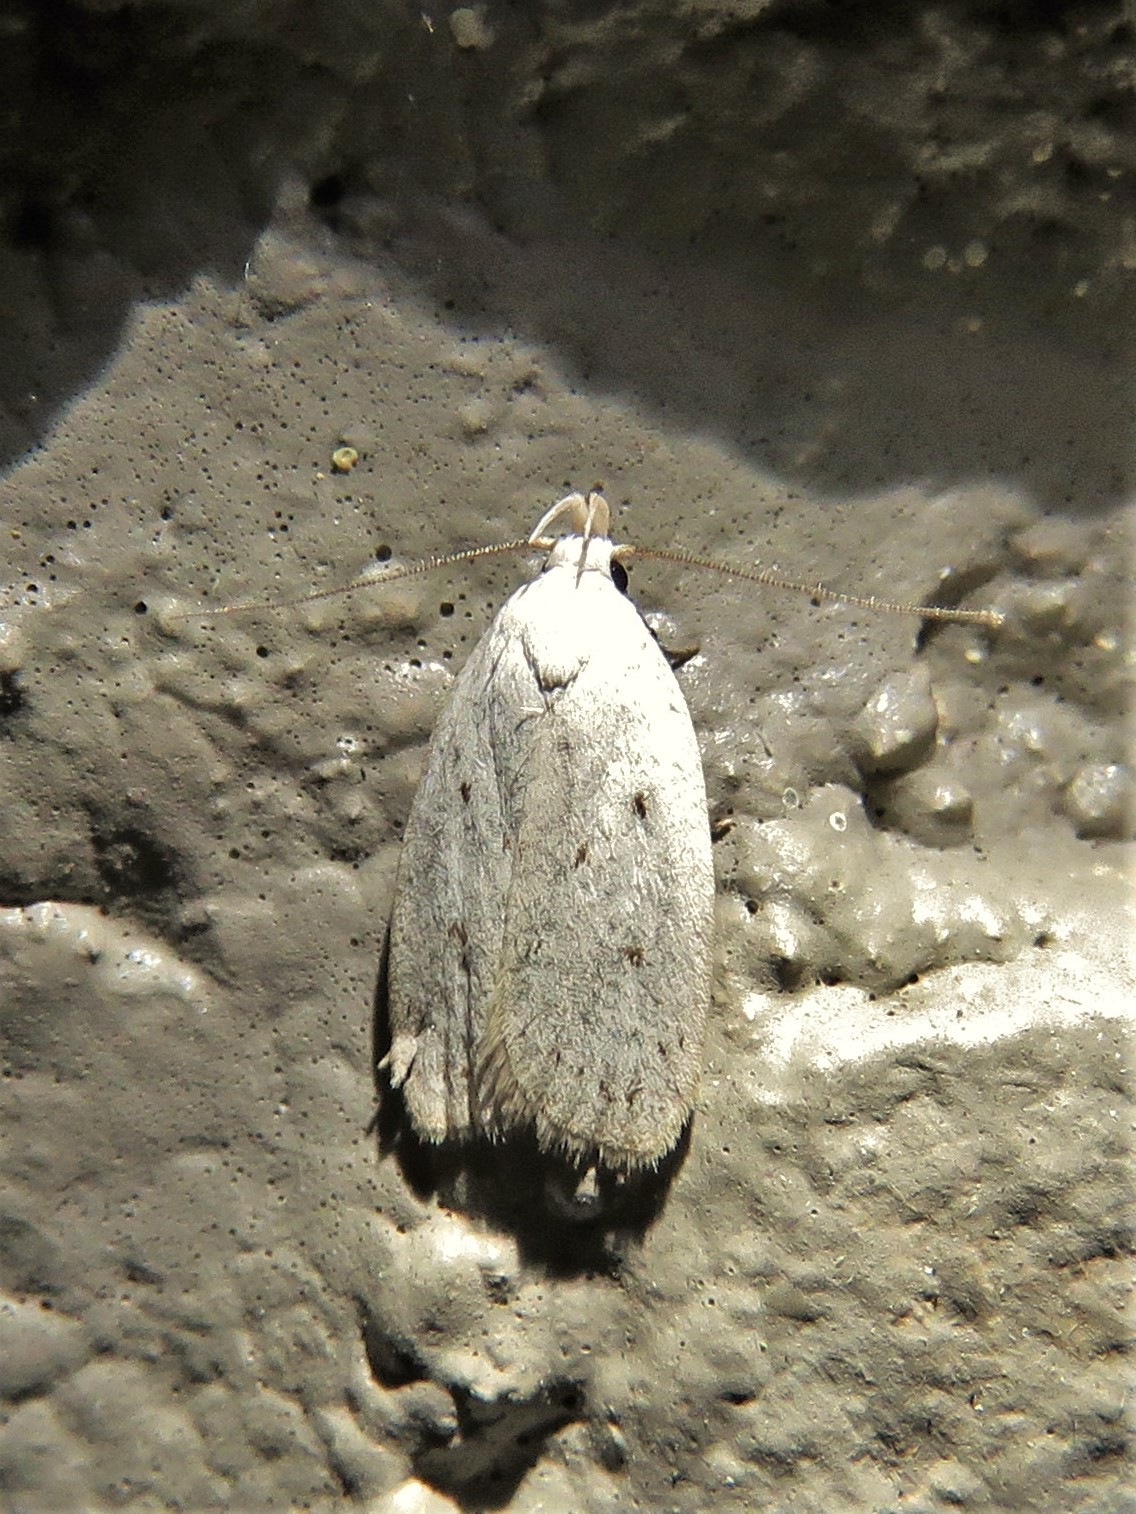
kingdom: Animalia
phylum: Arthropoda
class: Insecta
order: Lepidoptera
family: Oecophoridae
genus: Inga
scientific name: Inga cretacea
